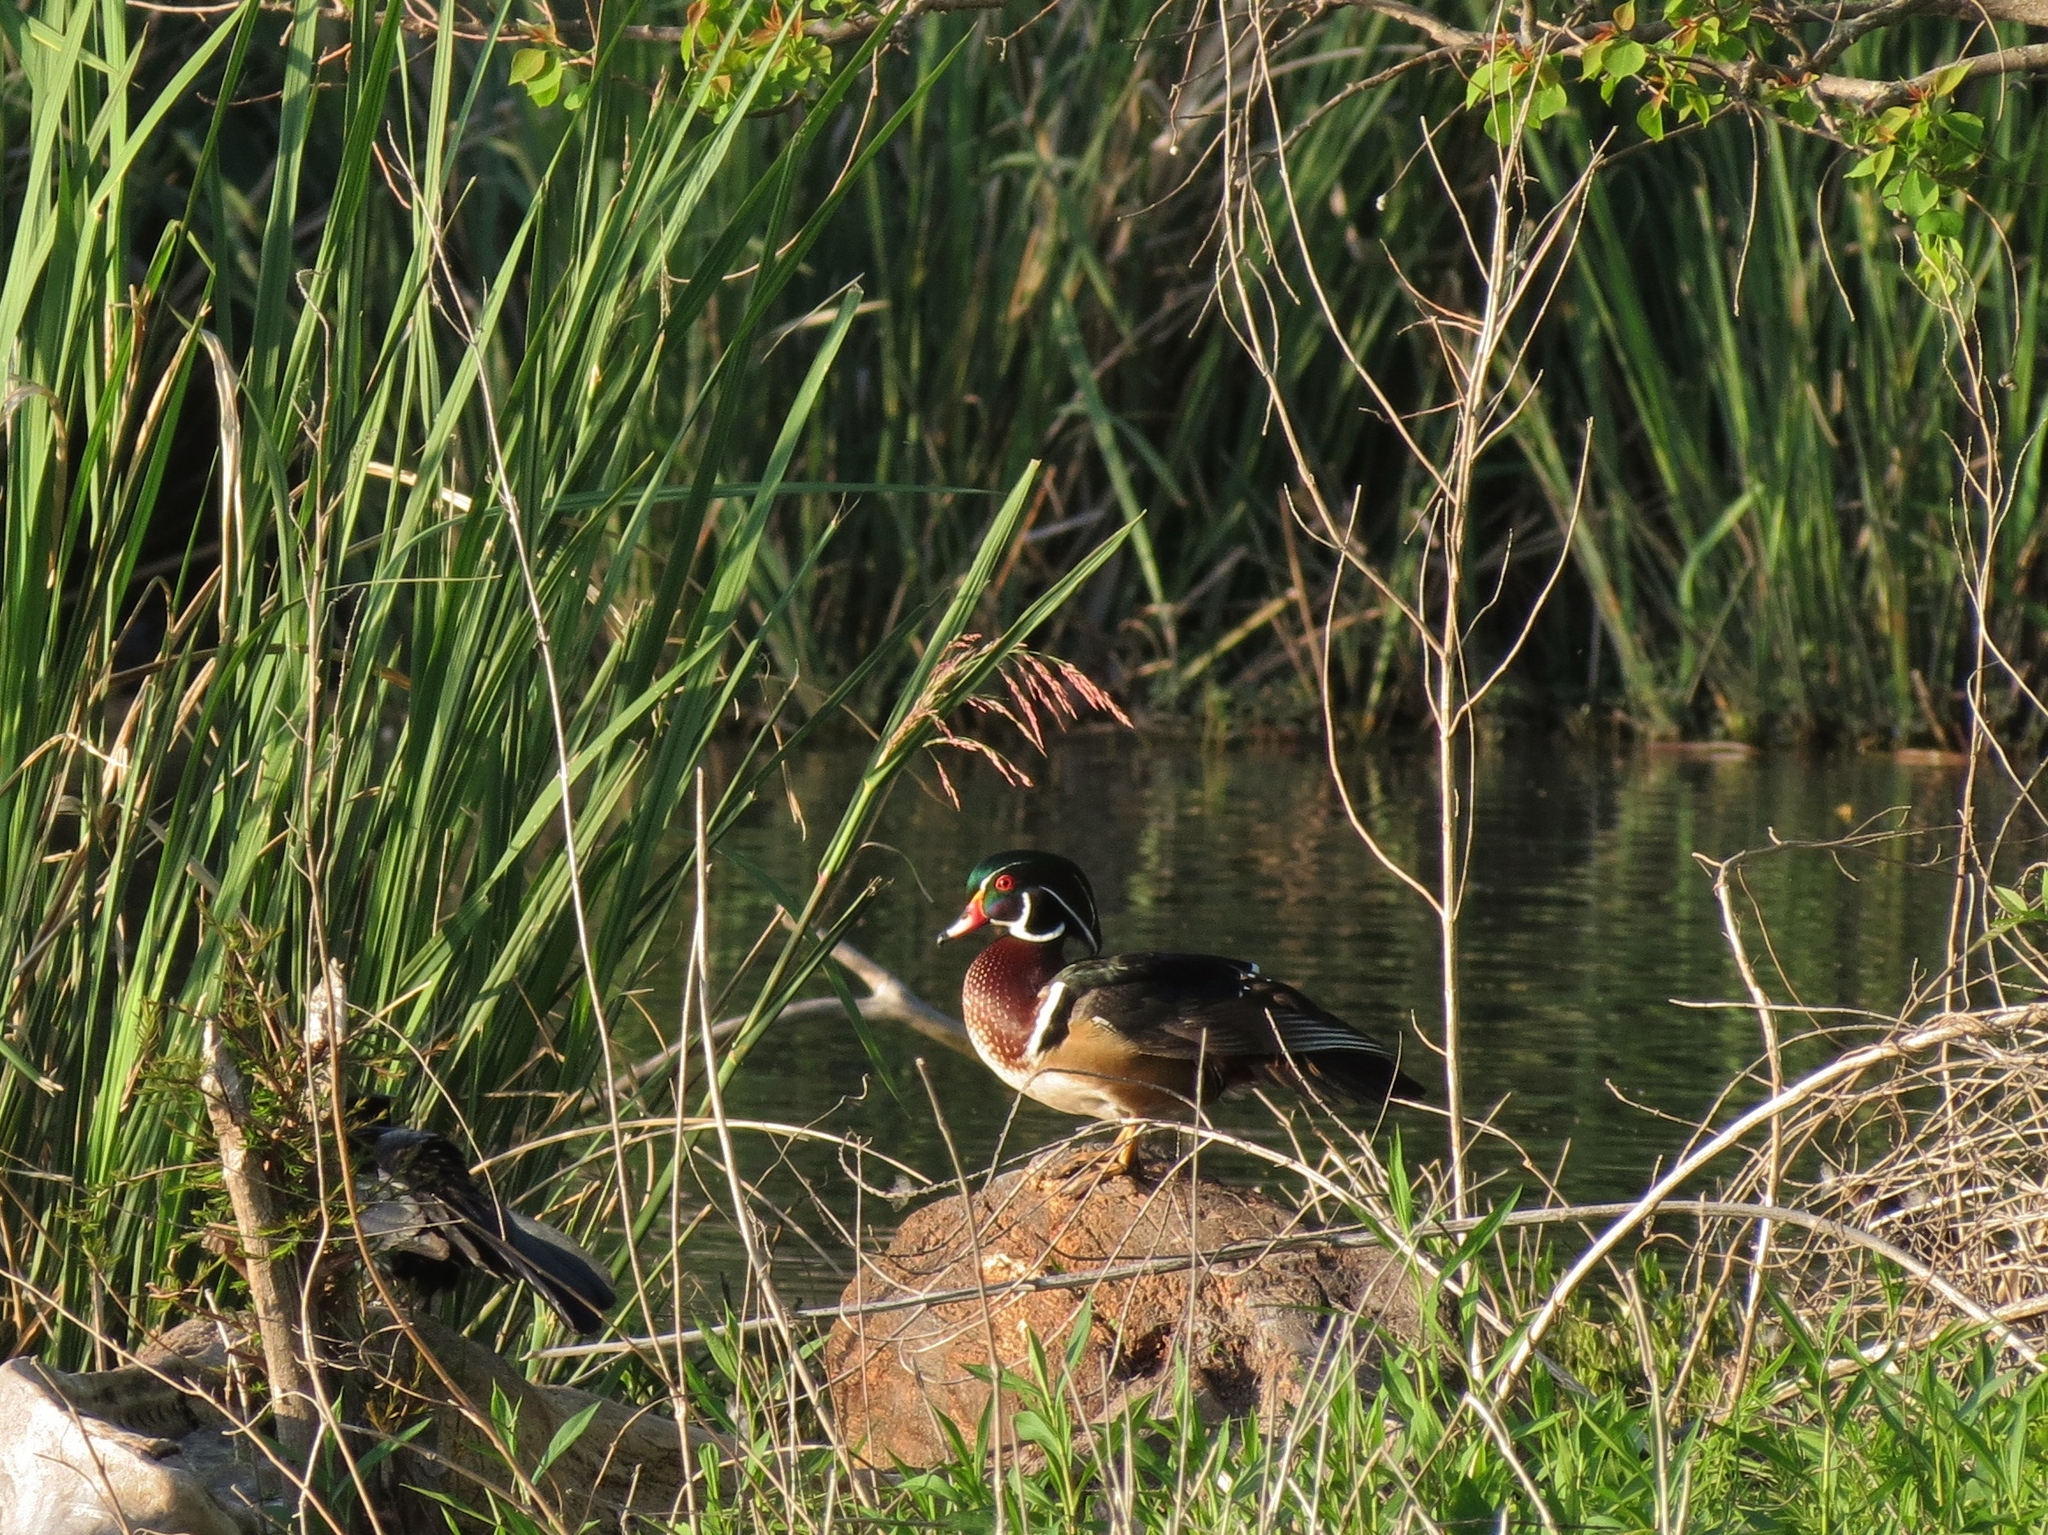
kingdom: Animalia
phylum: Chordata
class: Aves
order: Anseriformes
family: Anatidae
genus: Aix
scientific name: Aix sponsa
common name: Wood duck
